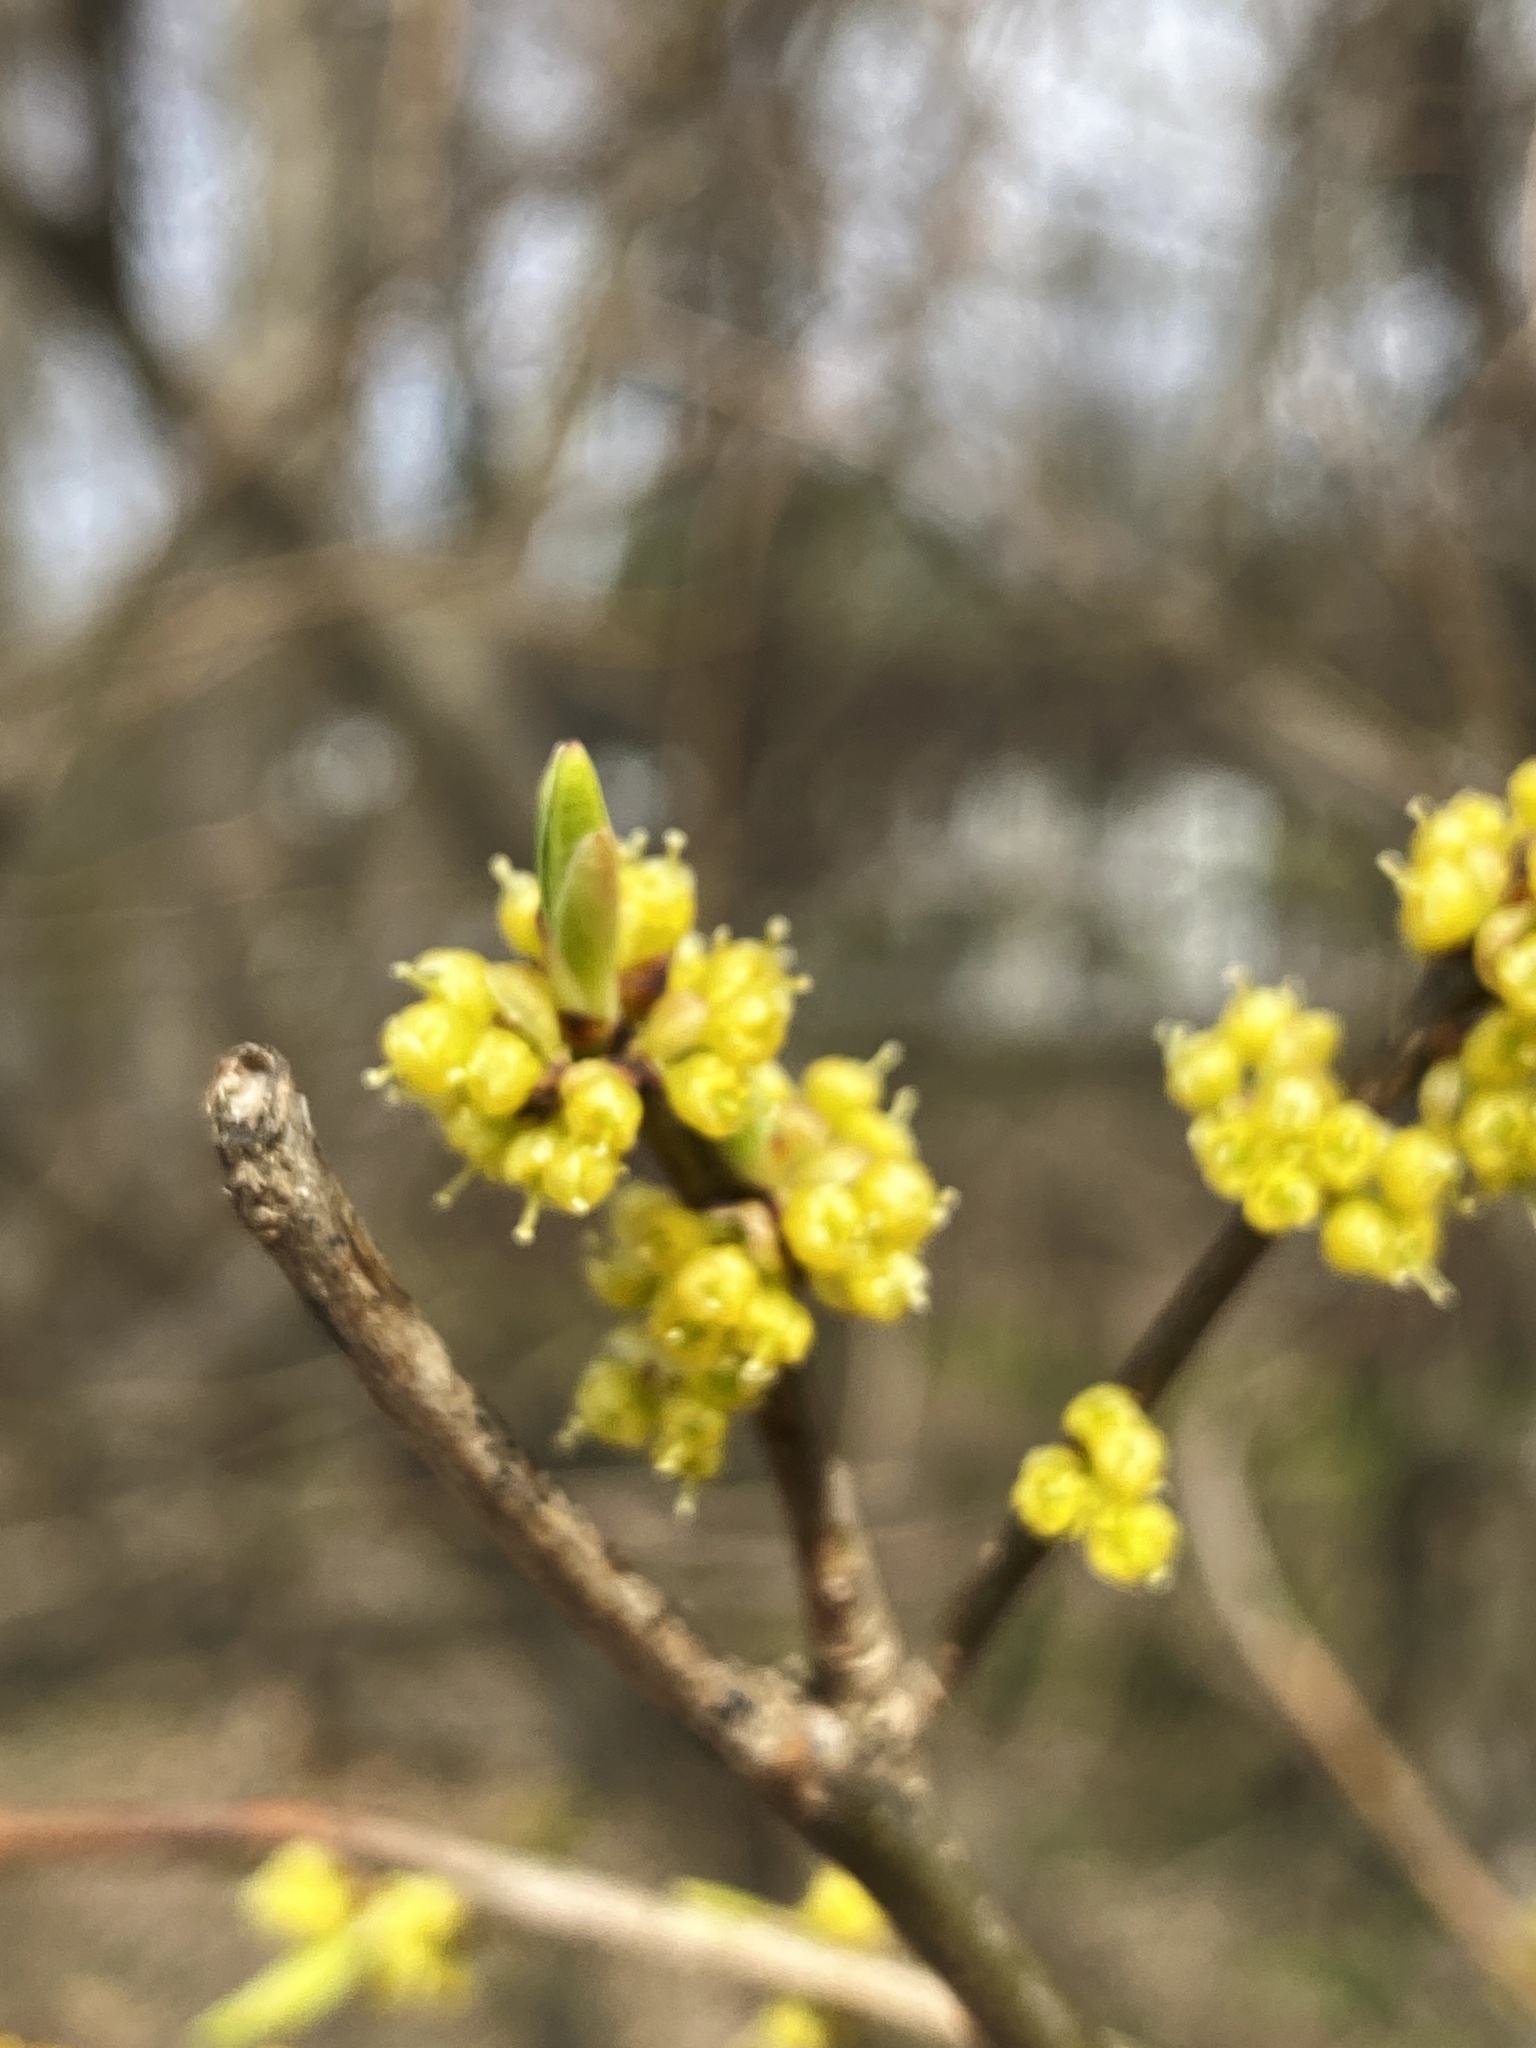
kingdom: Plantae
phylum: Tracheophyta
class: Magnoliopsida
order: Laurales
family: Lauraceae
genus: Lindera
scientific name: Lindera benzoin
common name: Spicebush
